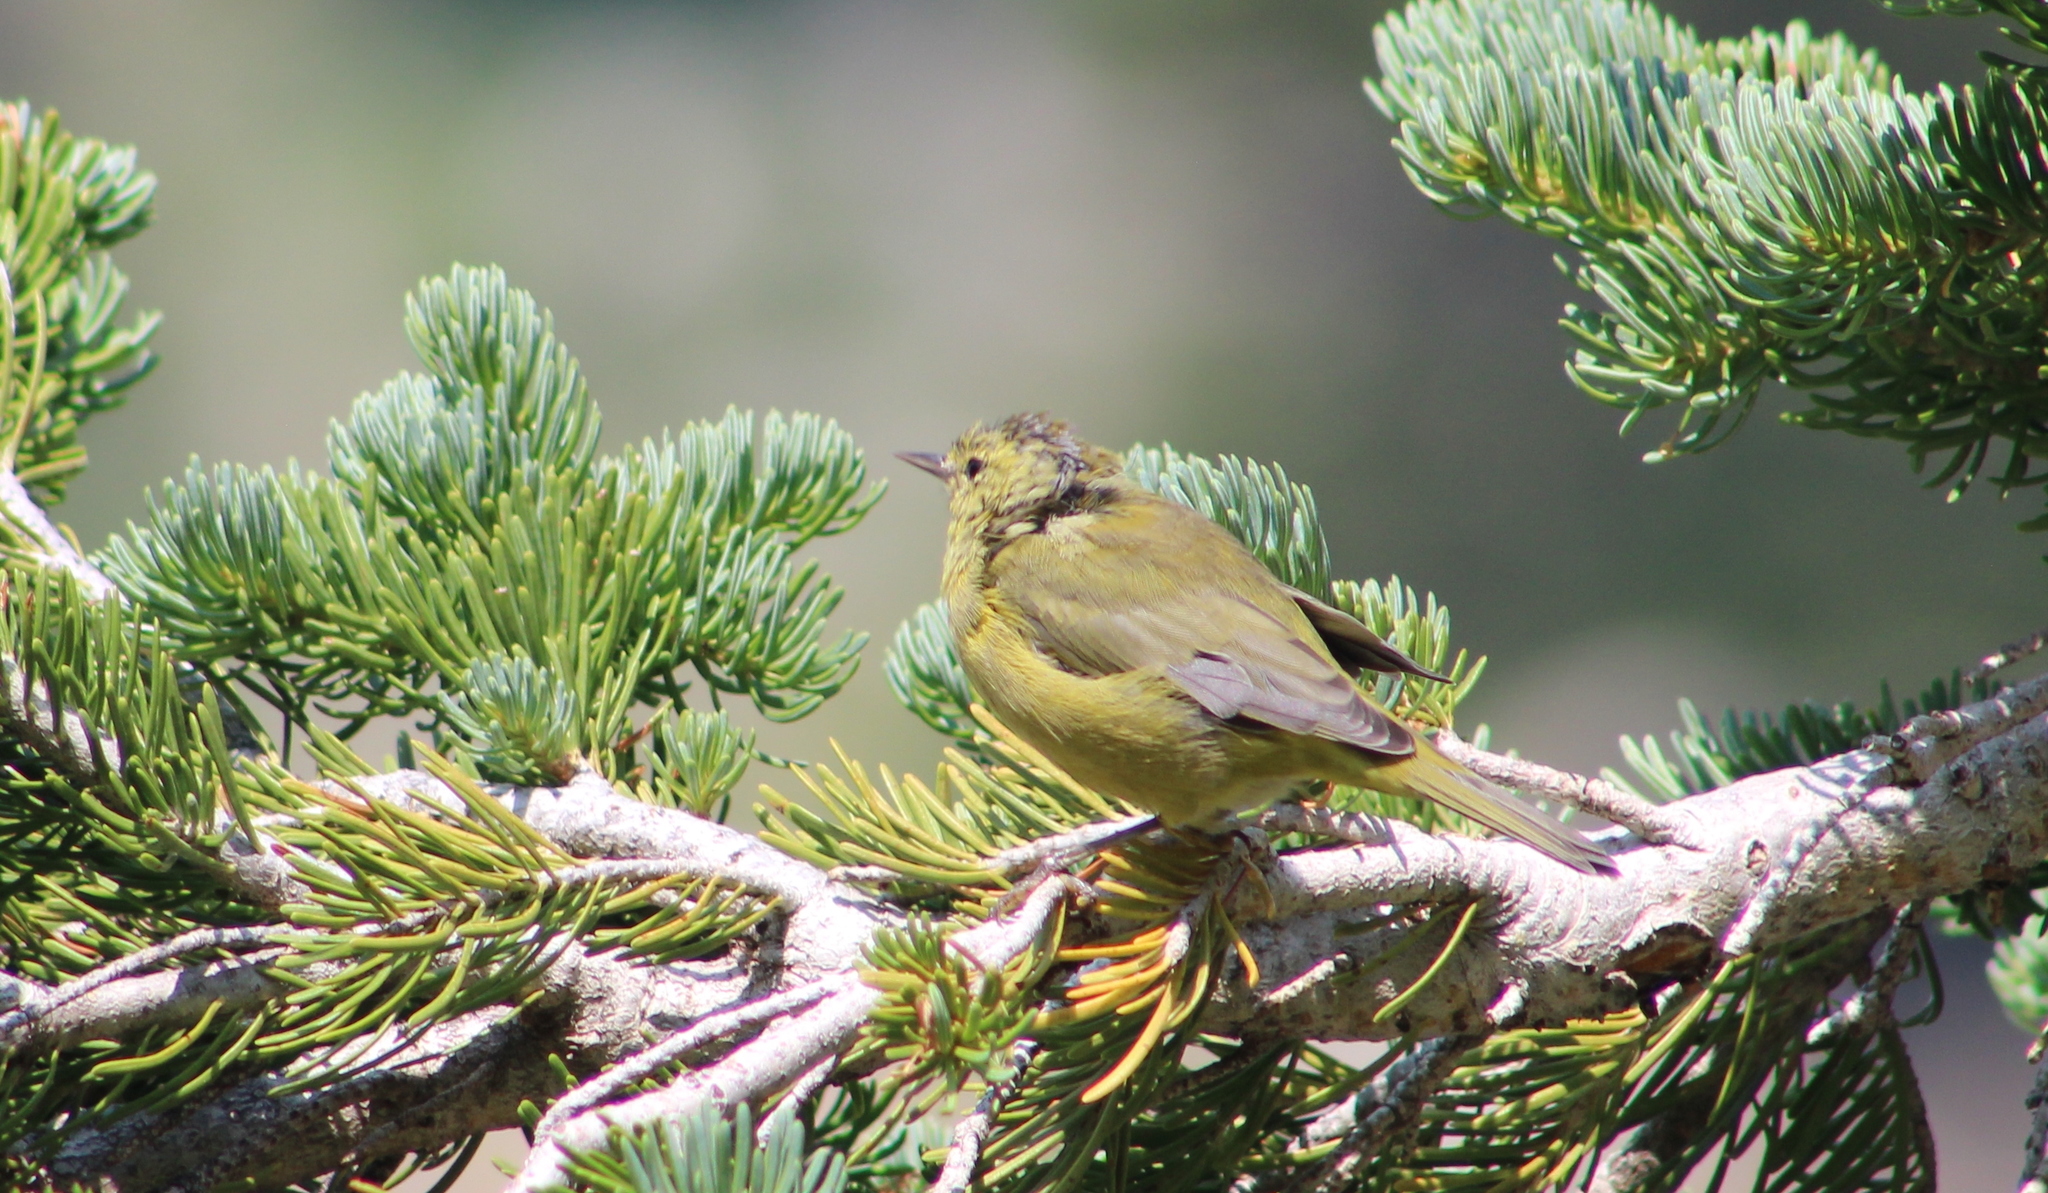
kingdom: Animalia
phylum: Chordata
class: Aves
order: Passeriformes
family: Parulidae
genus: Leiothlypis
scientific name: Leiothlypis celata
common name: Orange-crowned warbler
